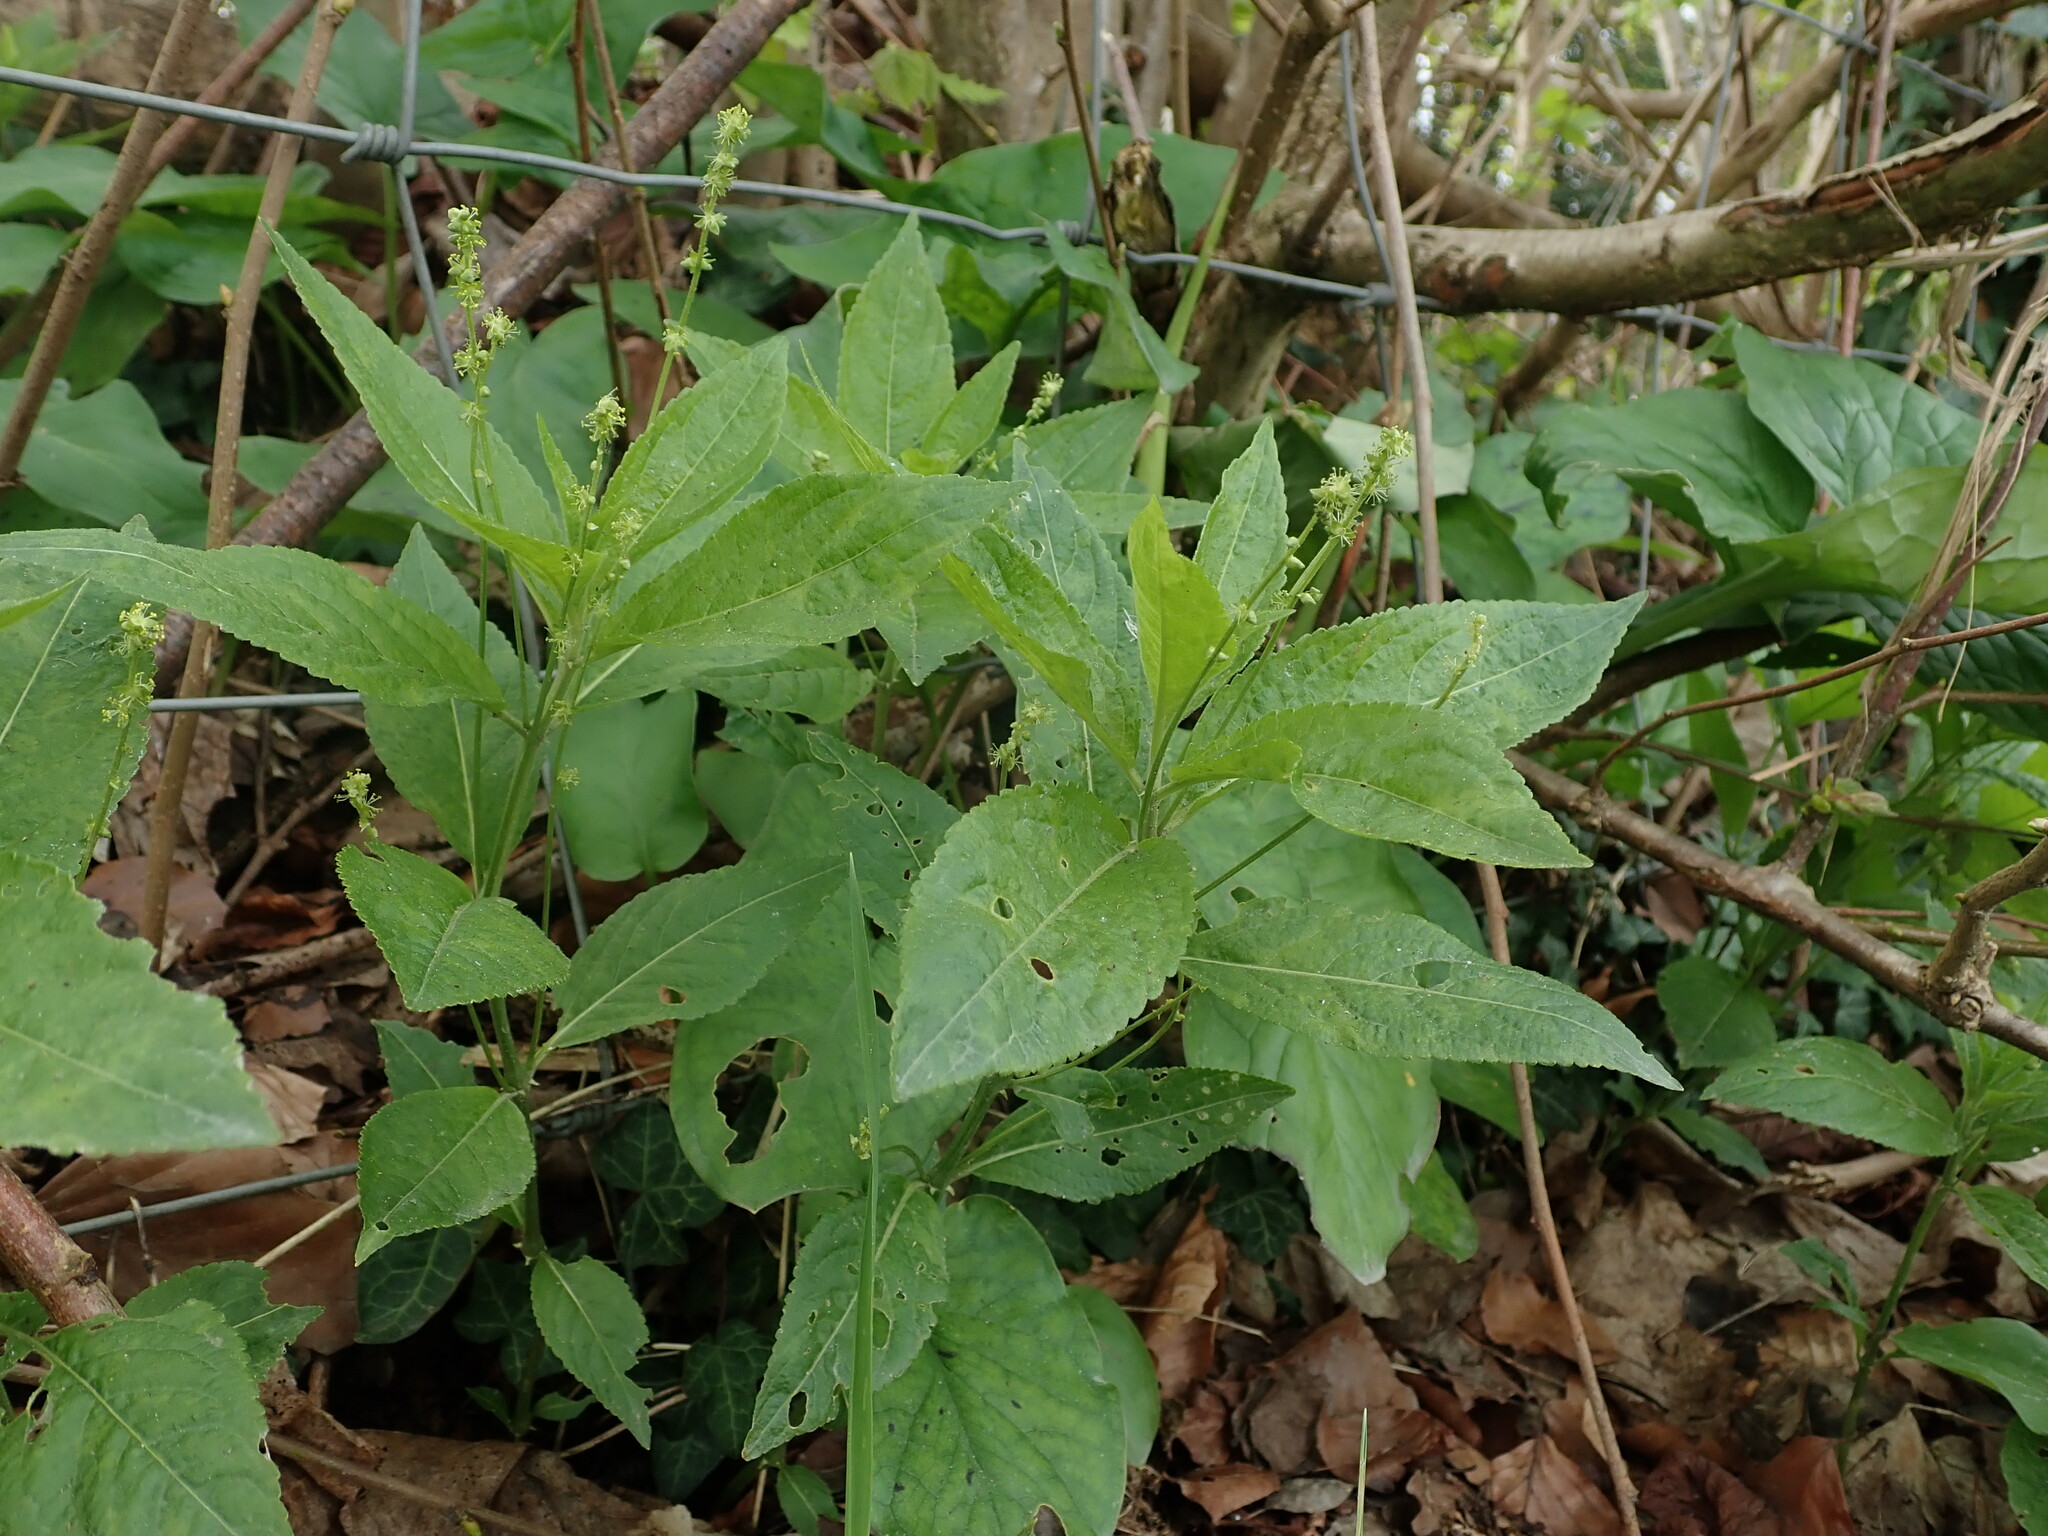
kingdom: Plantae
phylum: Tracheophyta
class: Magnoliopsida
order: Malpighiales
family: Euphorbiaceae
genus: Mercurialis
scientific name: Mercurialis perennis
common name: Dog mercury
